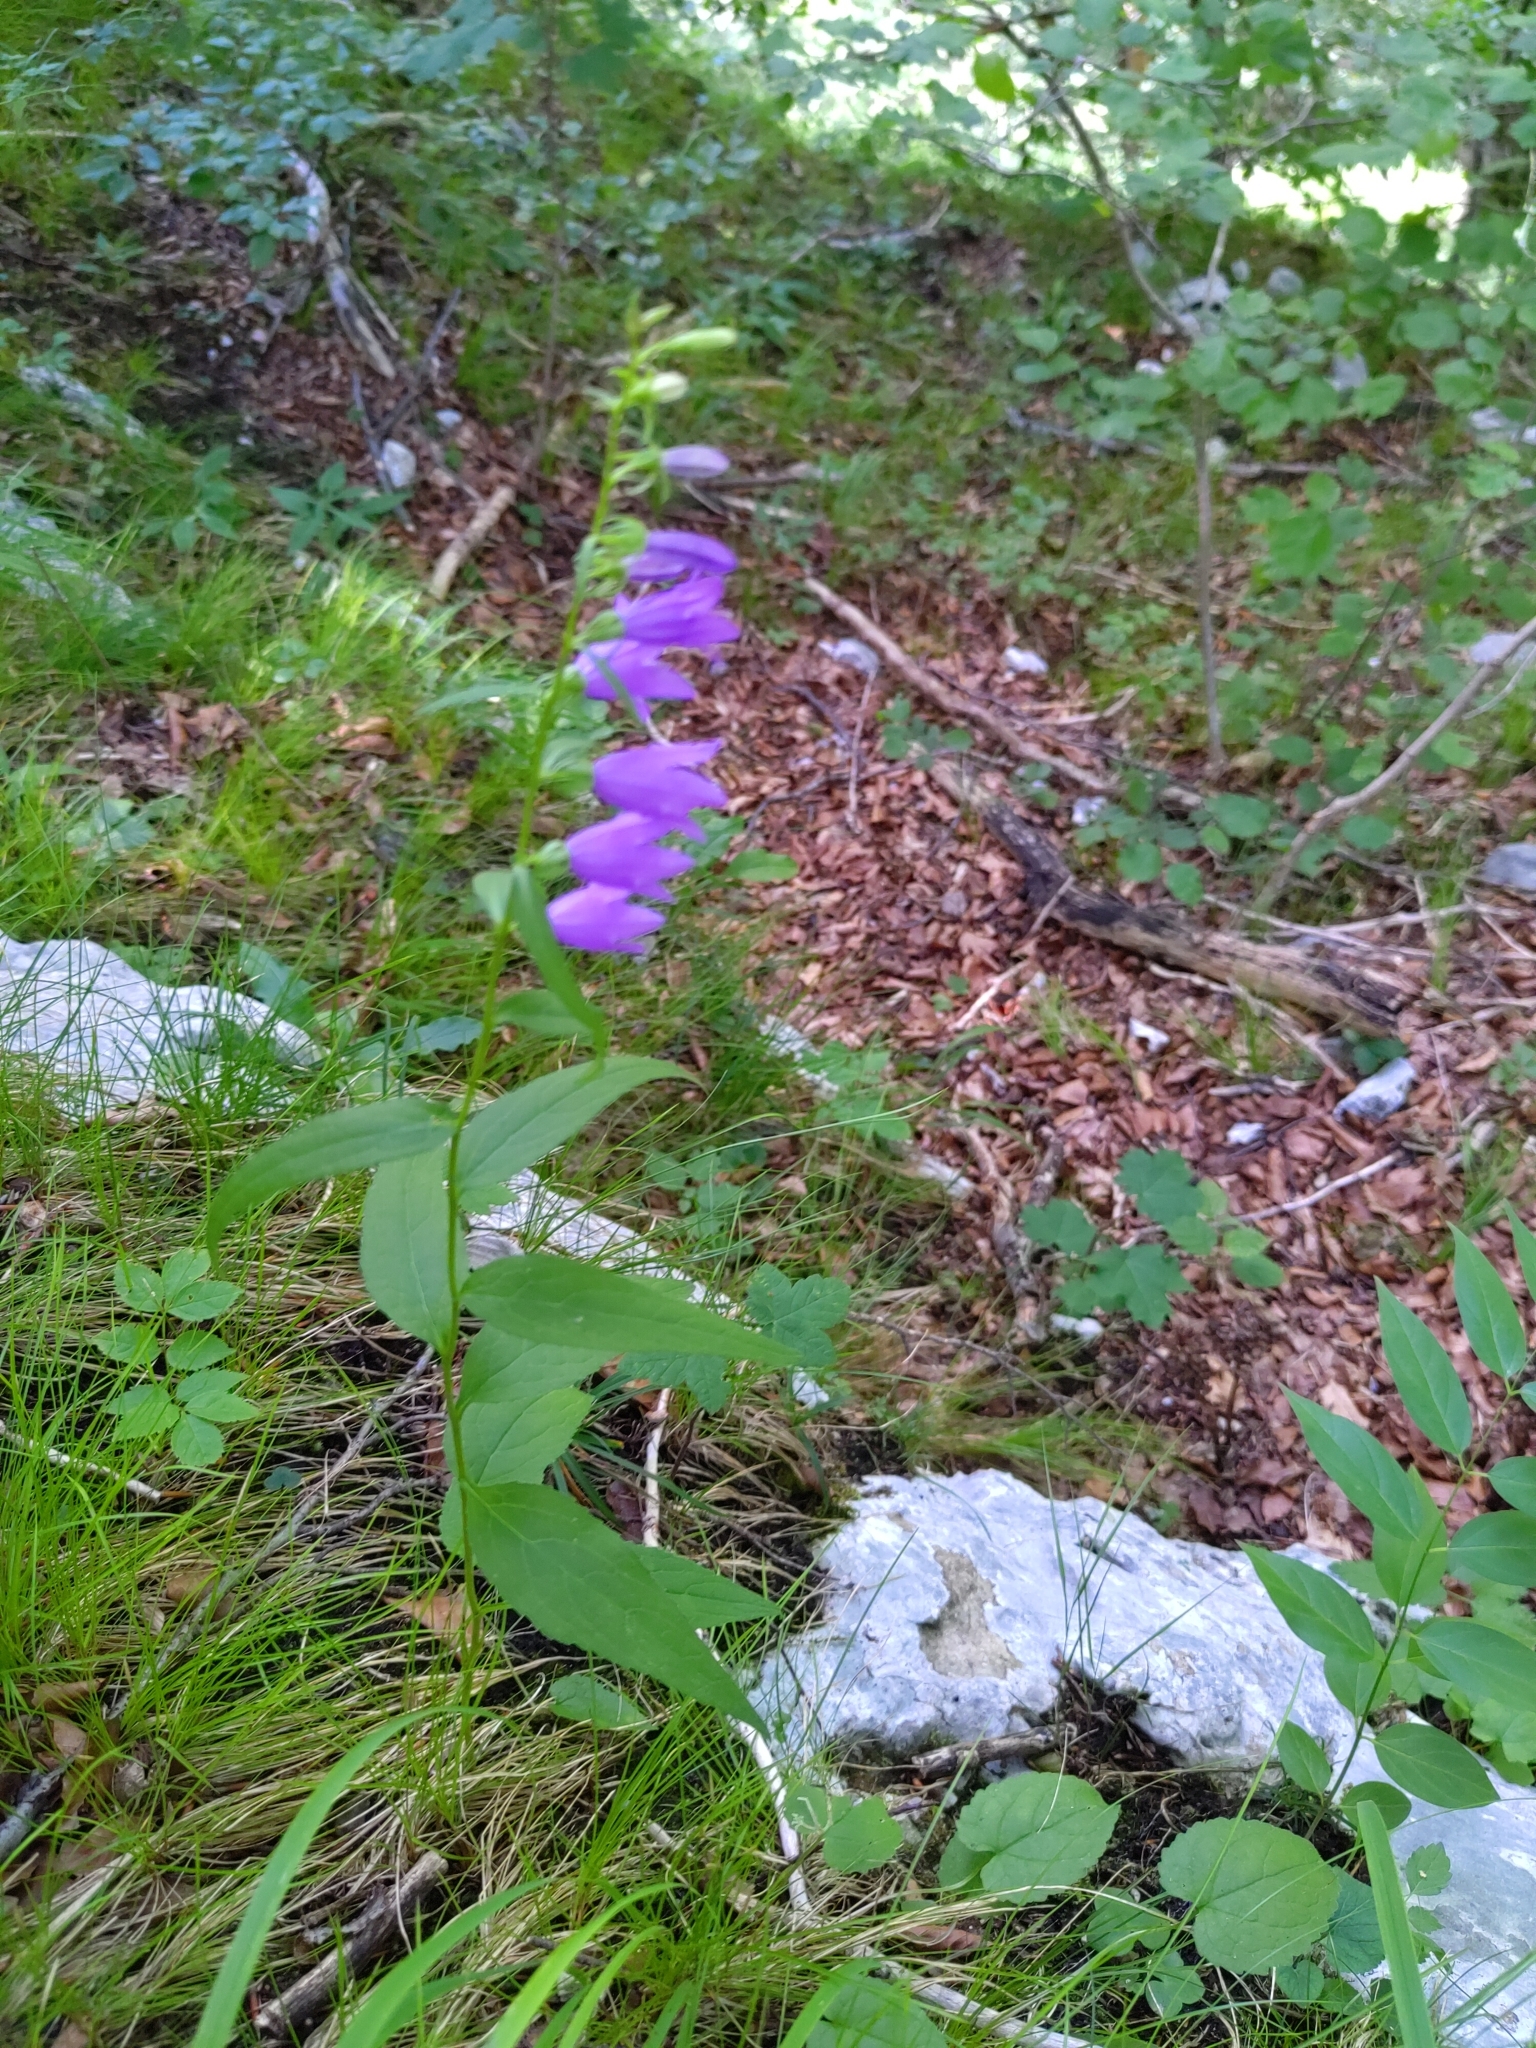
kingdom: Plantae
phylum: Tracheophyta
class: Magnoliopsida
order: Asterales
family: Campanulaceae
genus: Campanula
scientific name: Campanula rapunculoides
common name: Creeping bellflower
